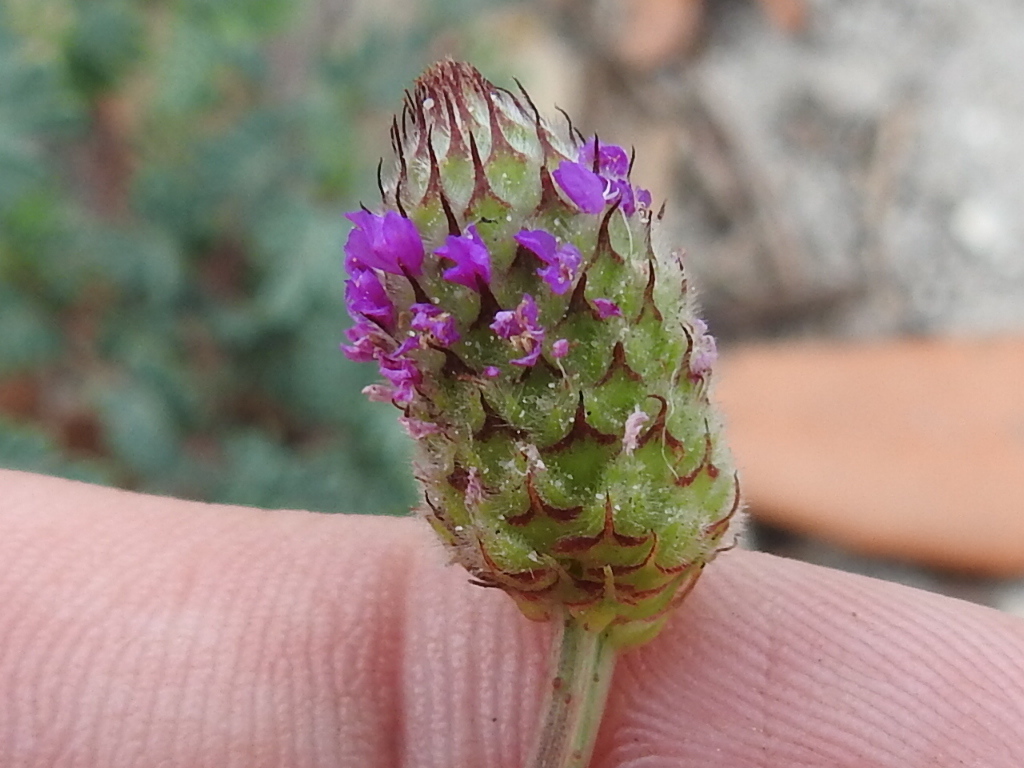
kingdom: Plantae
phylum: Tracheophyta
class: Magnoliopsida
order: Fabales
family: Fabaceae
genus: Dalea
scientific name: Dalea emarginata
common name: Wedgeleaf prairie clover
